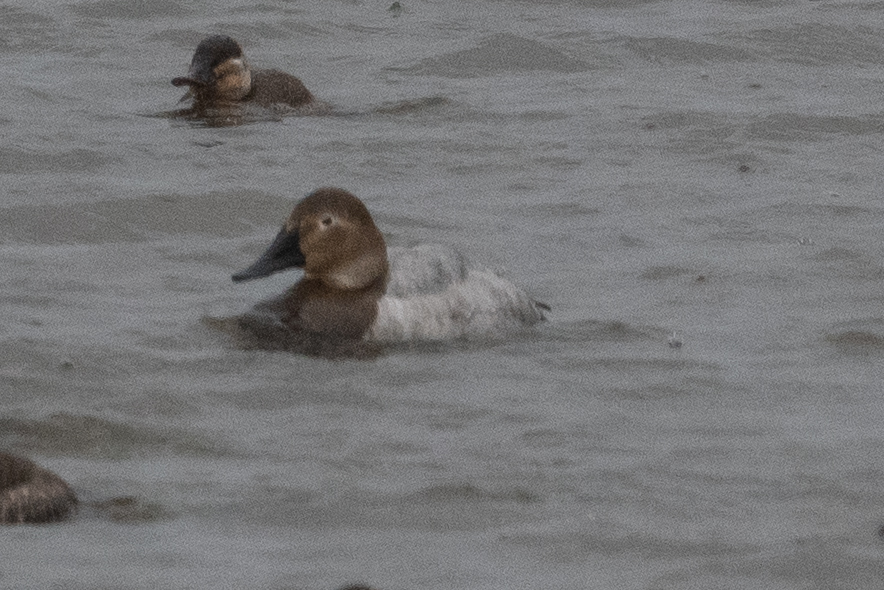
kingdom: Animalia
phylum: Chordata
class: Aves
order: Anseriformes
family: Anatidae
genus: Aythya
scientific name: Aythya valisineria
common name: Canvasback
